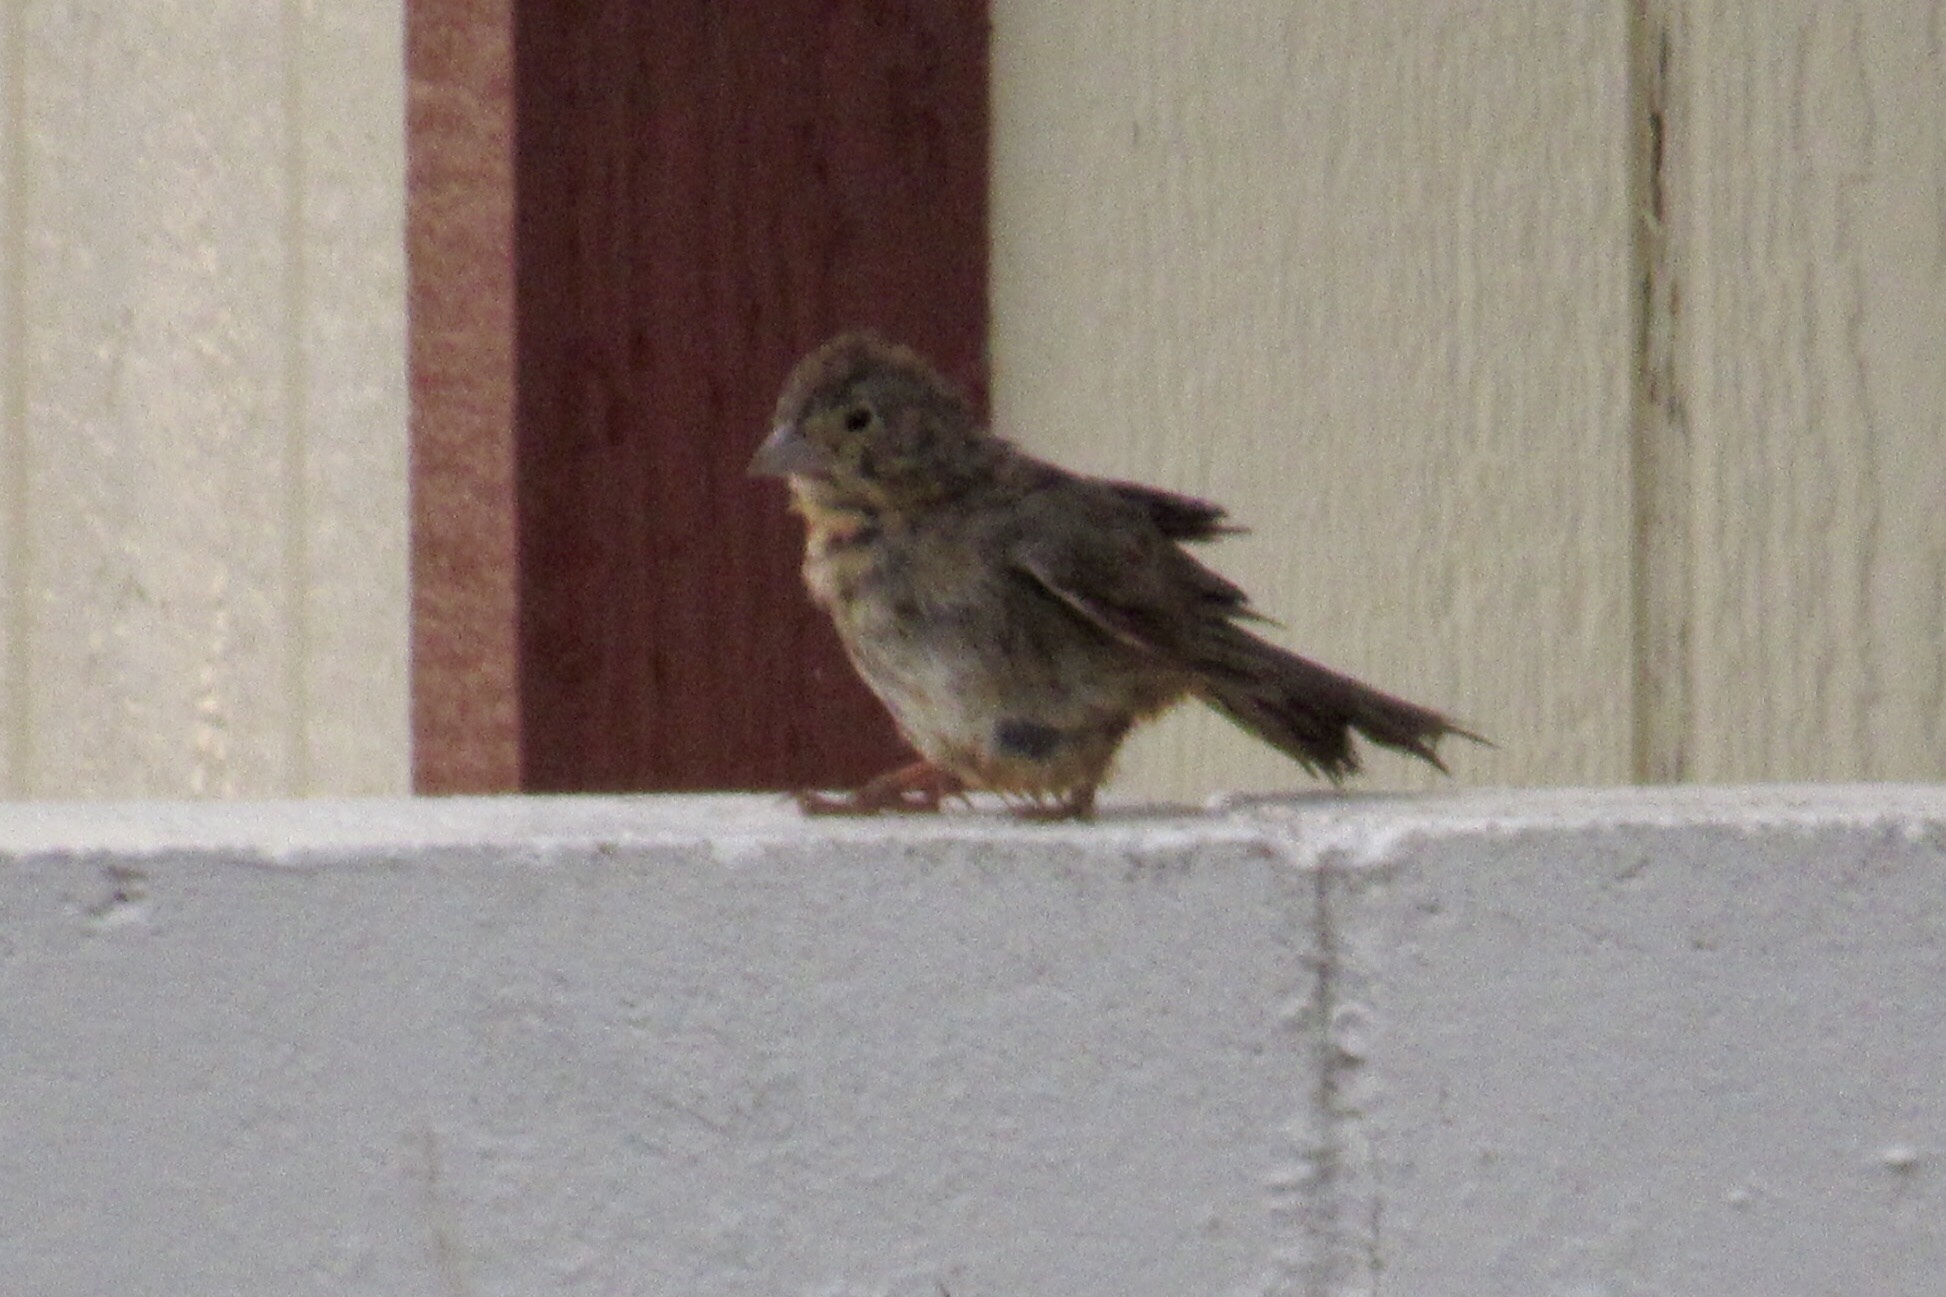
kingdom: Animalia
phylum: Chordata
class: Aves
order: Passeriformes
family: Passerellidae
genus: Melozone
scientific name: Melozone fusca
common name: Canyon towhee
